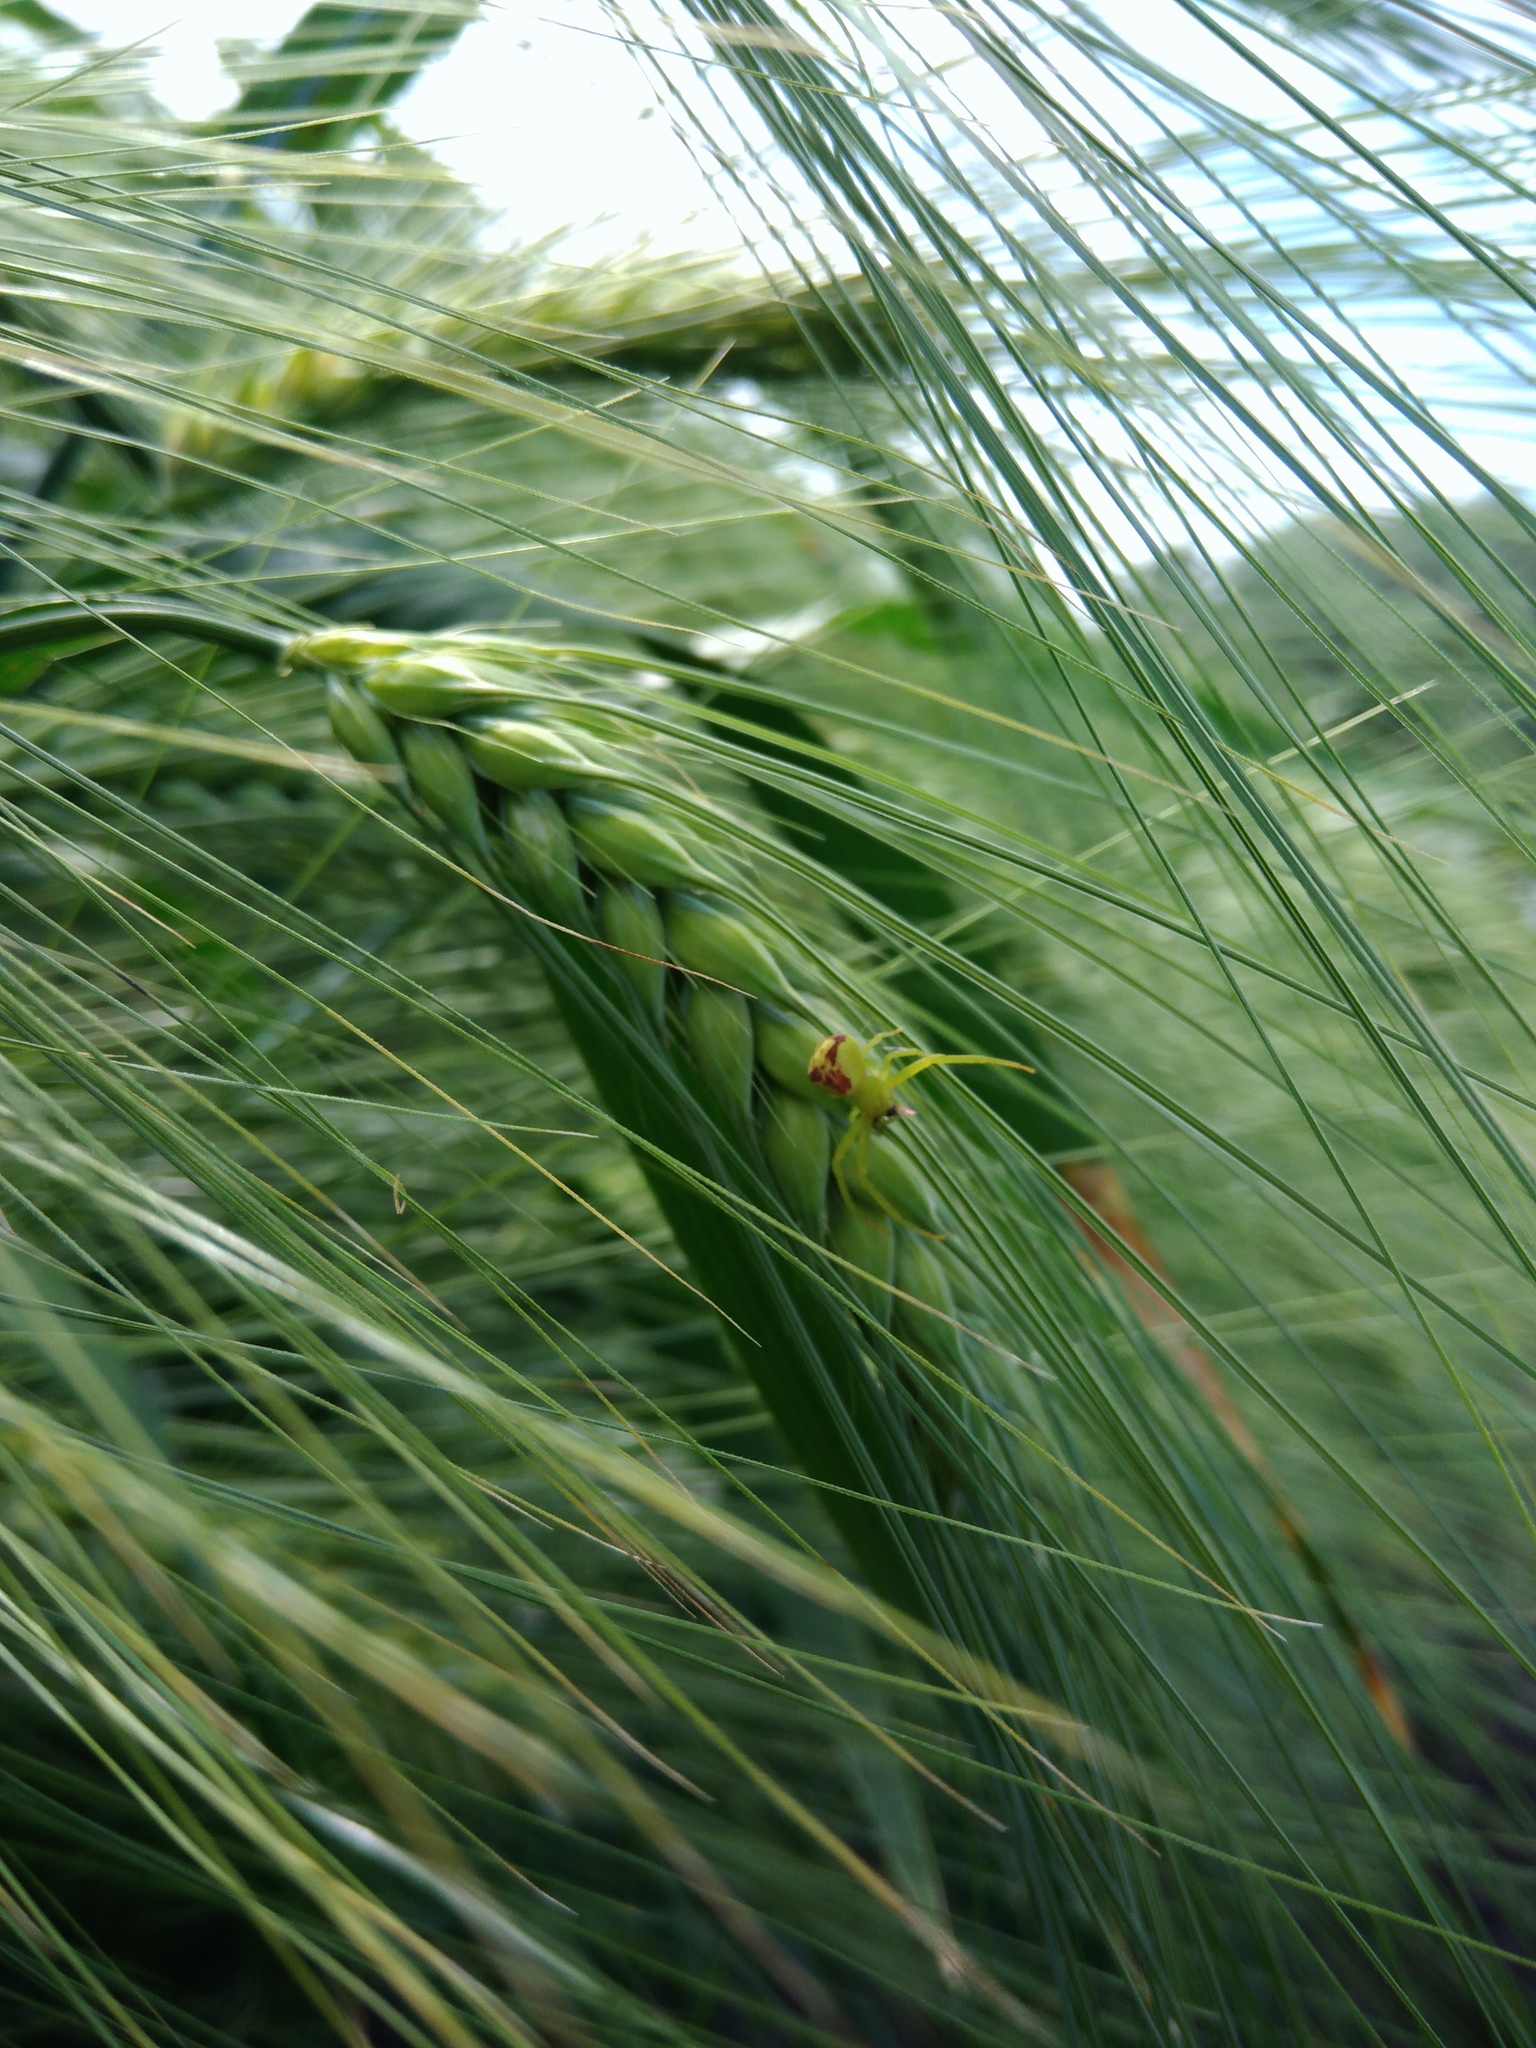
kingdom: Animalia
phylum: Arthropoda
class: Arachnida
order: Araneae
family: Thomisidae
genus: Ebrechtella
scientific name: Ebrechtella tricuspidata
